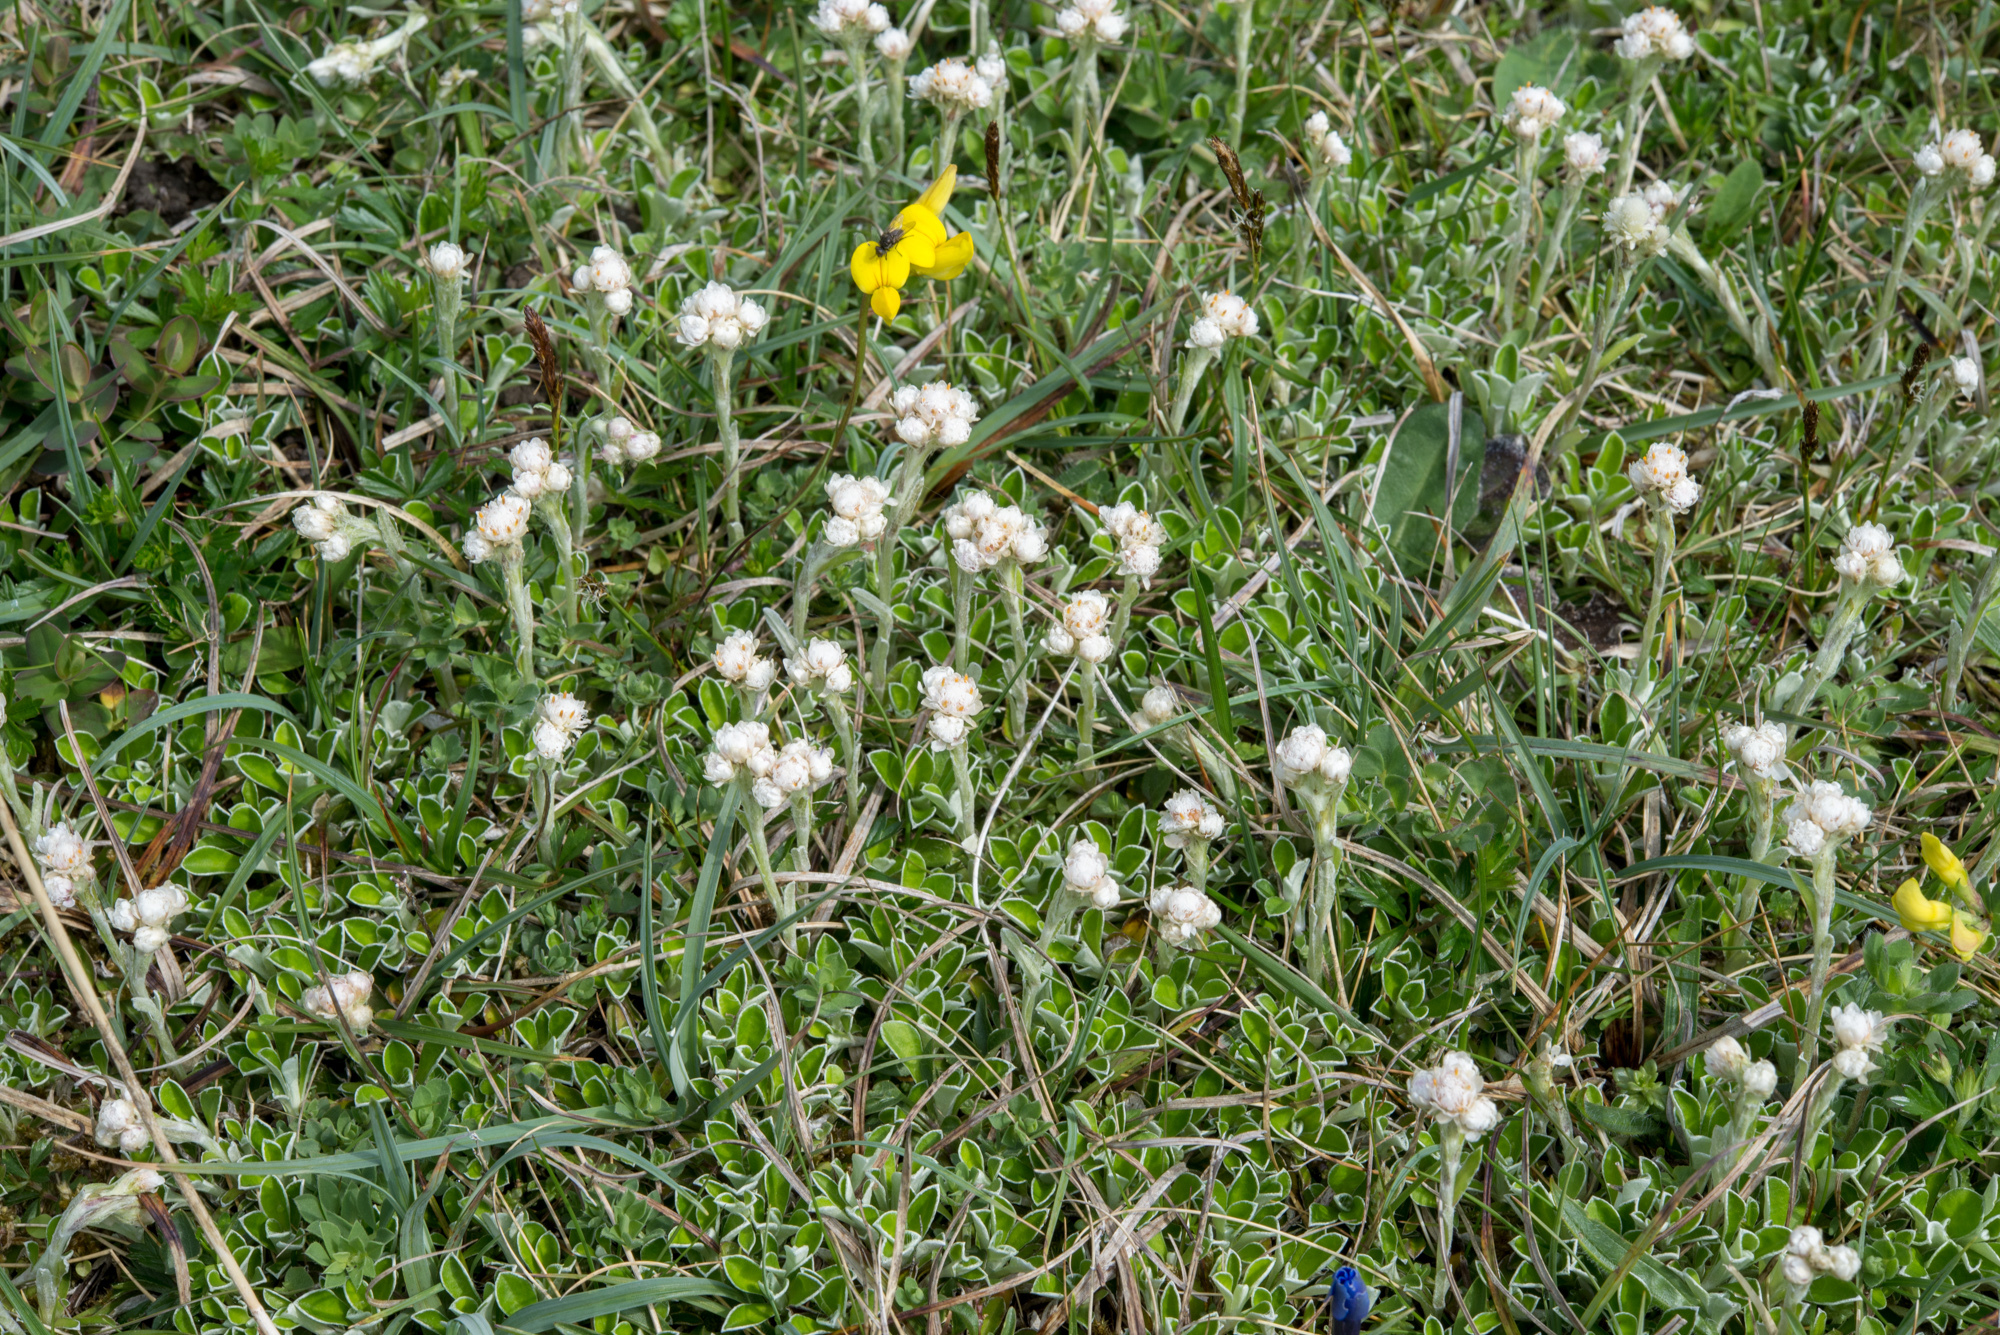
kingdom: Plantae
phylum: Tracheophyta
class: Magnoliopsida
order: Asterales
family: Asteraceae
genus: Antennaria
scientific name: Antennaria dioica
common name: Mountain everlasting
